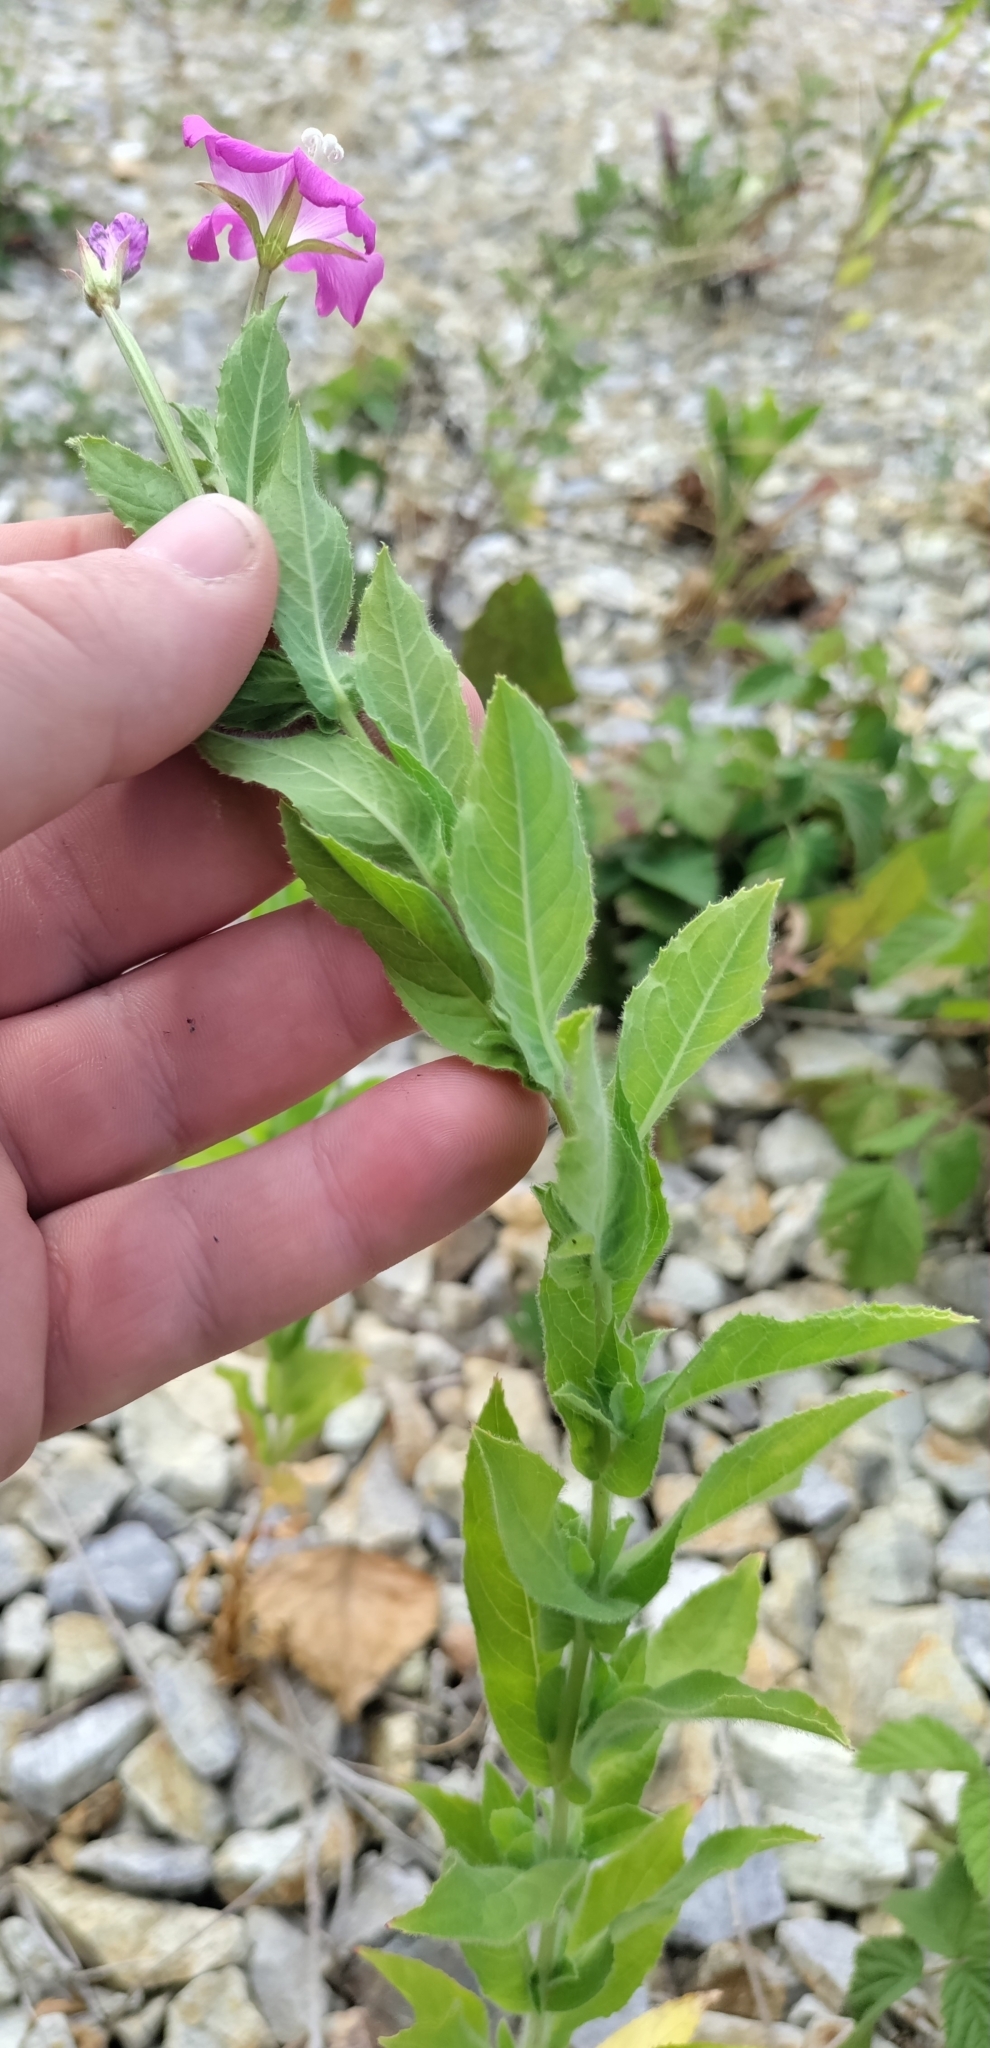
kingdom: Plantae
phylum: Tracheophyta
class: Magnoliopsida
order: Myrtales
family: Onagraceae
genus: Epilobium
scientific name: Epilobium hirsutum
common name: Great willowherb
